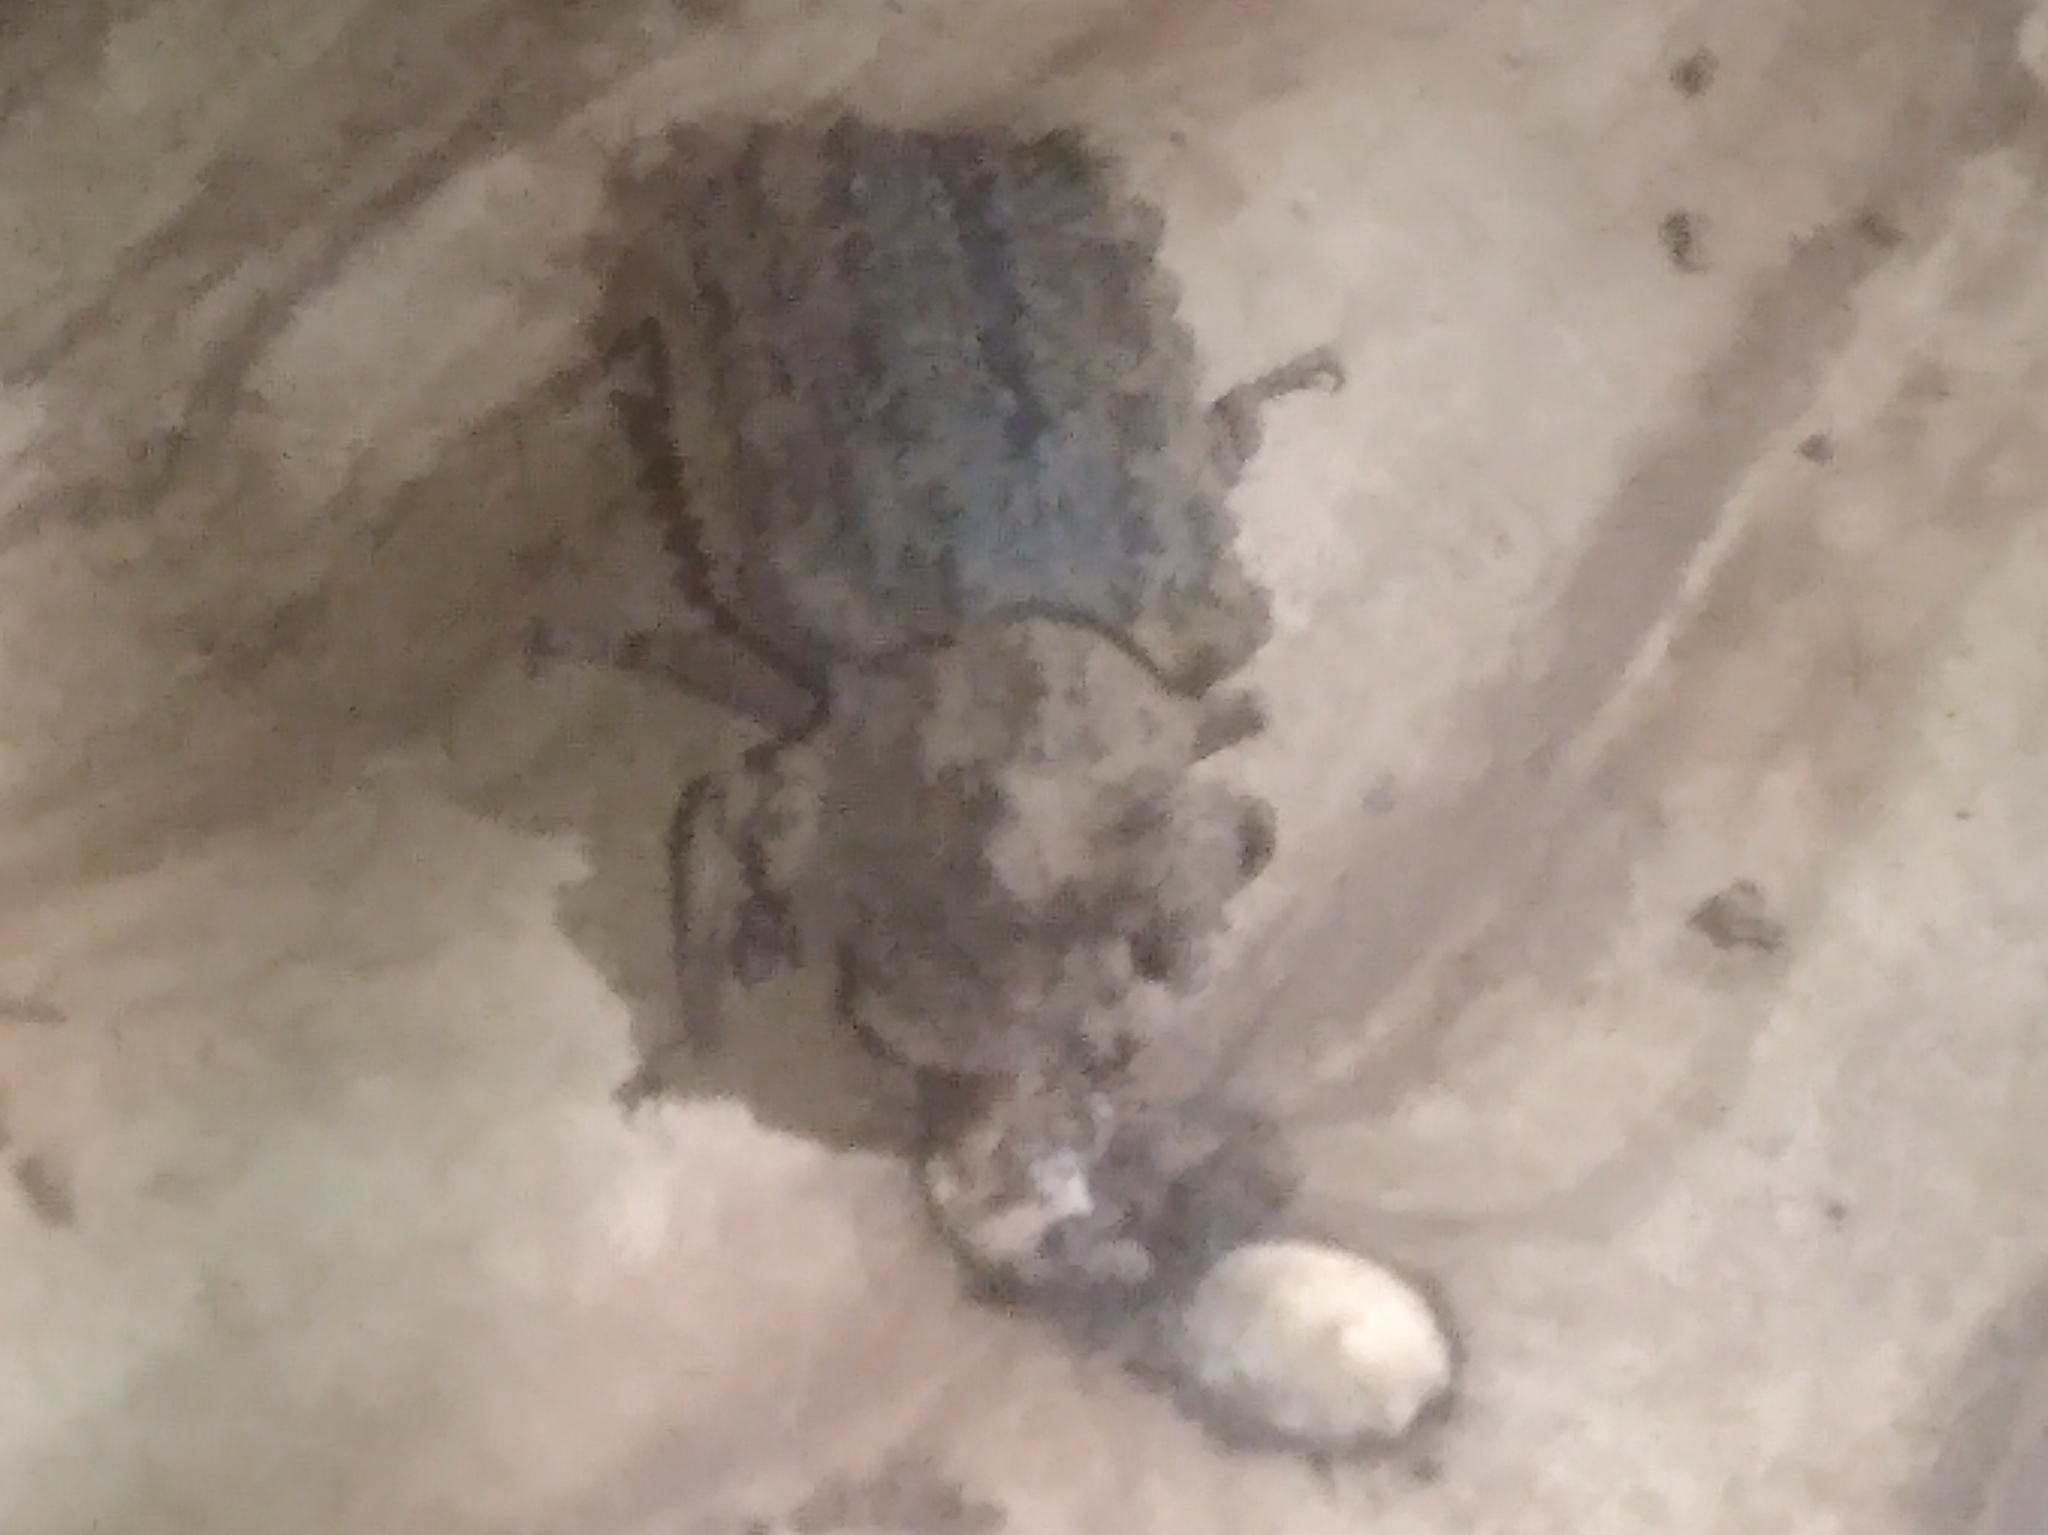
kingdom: Animalia
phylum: Arthropoda
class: Insecta
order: Coleoptera
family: Tenebrionidae
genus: Gnatocerus
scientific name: Gnatocerus cornutus
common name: Broad-horned flour beetle
